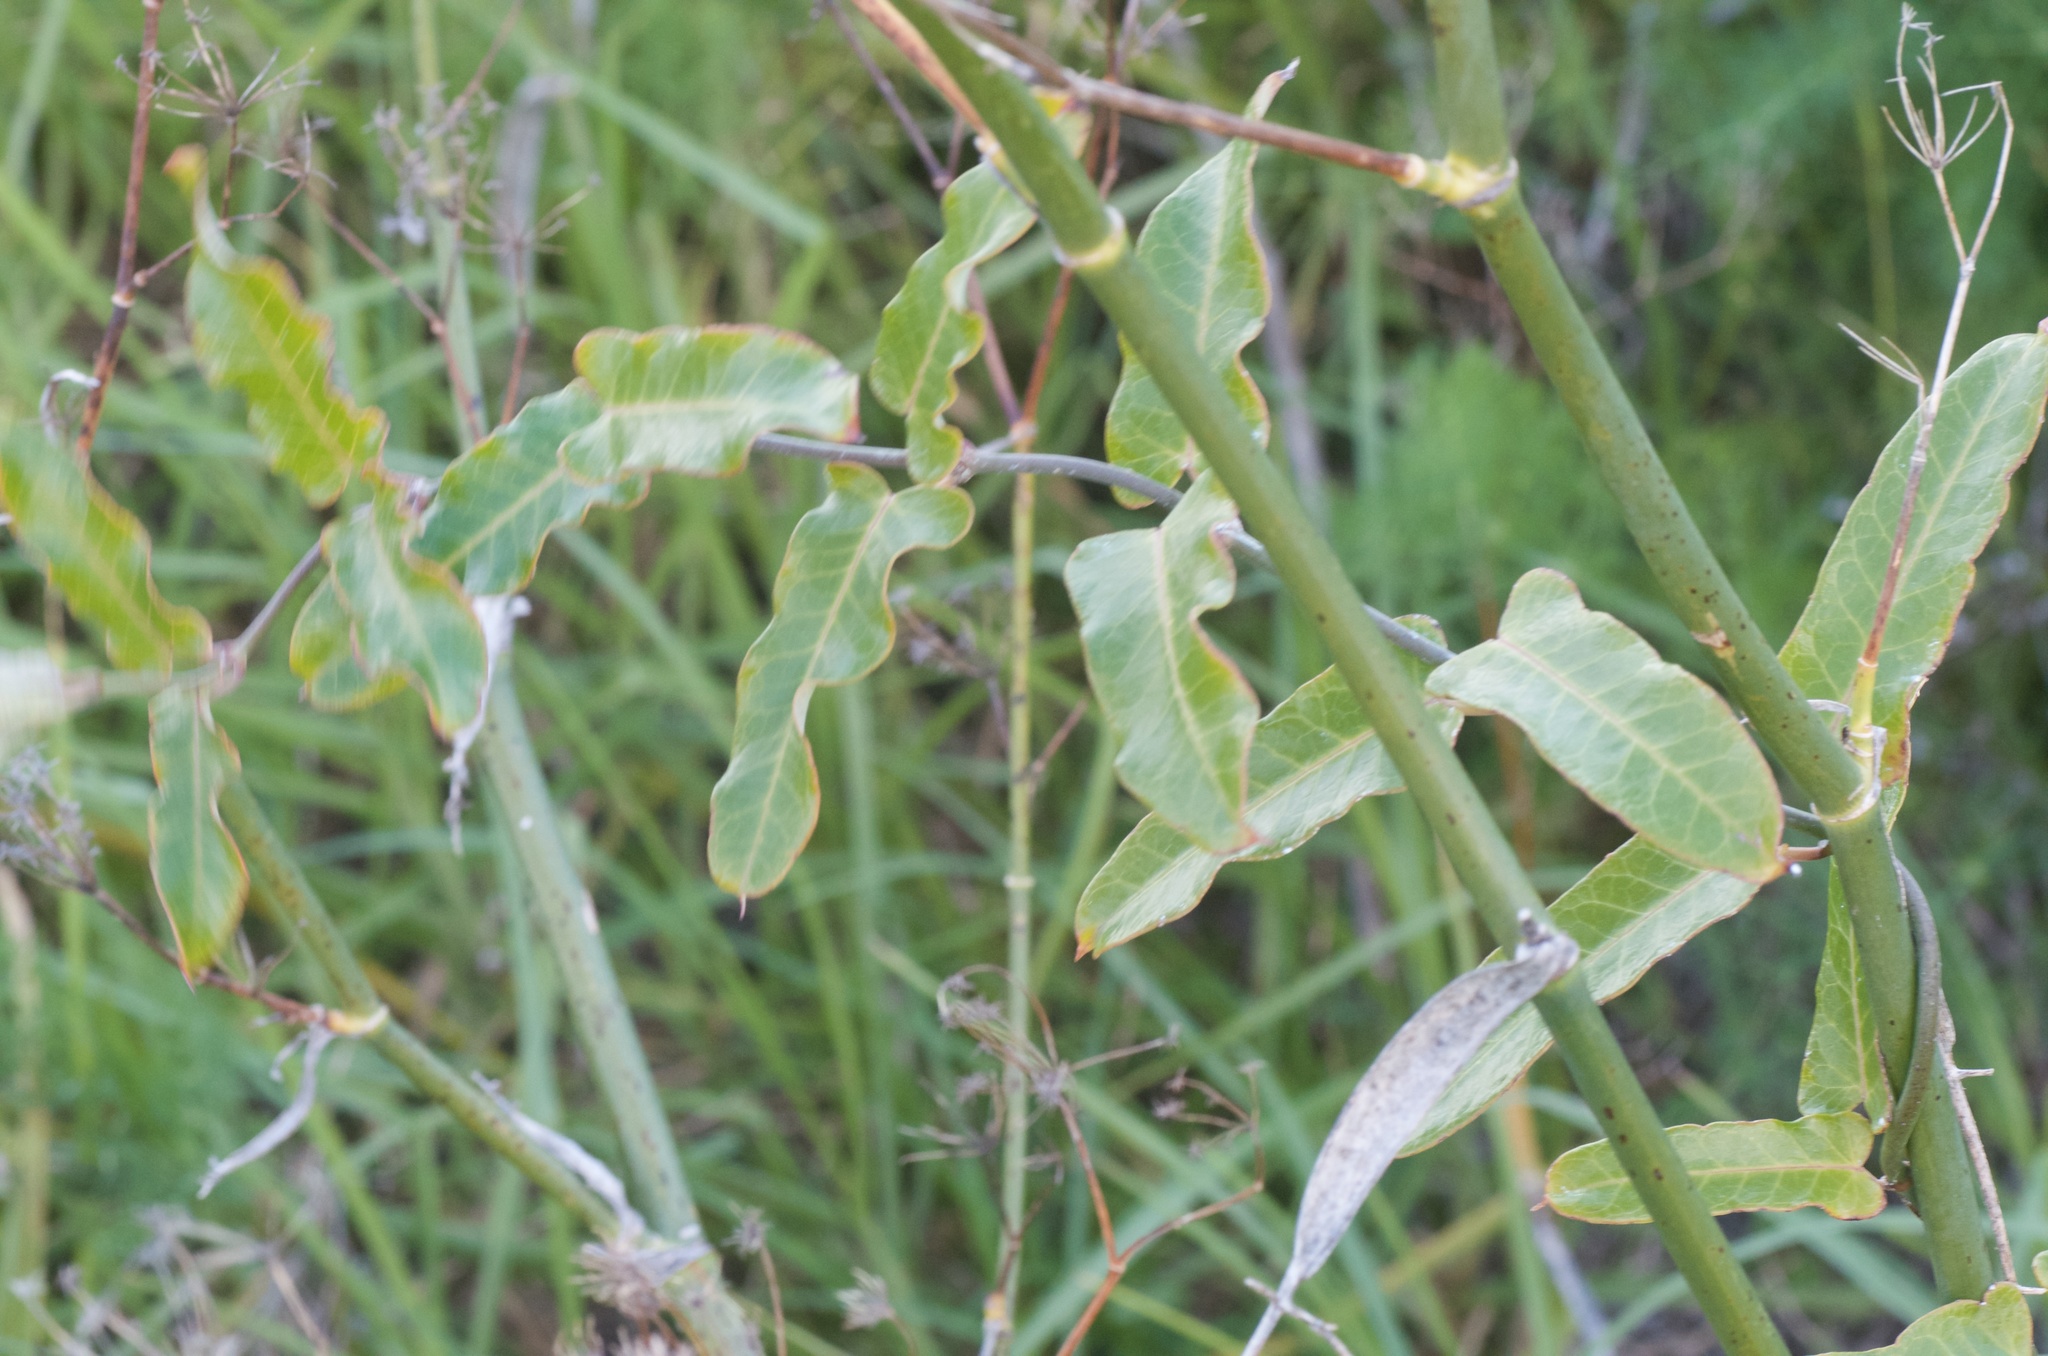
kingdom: Plantae
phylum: Tracheophyta
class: Magnoliopsida
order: Gentianales
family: Apocynaceae
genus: Araujia
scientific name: Araujia sericifera
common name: White bladderflower
